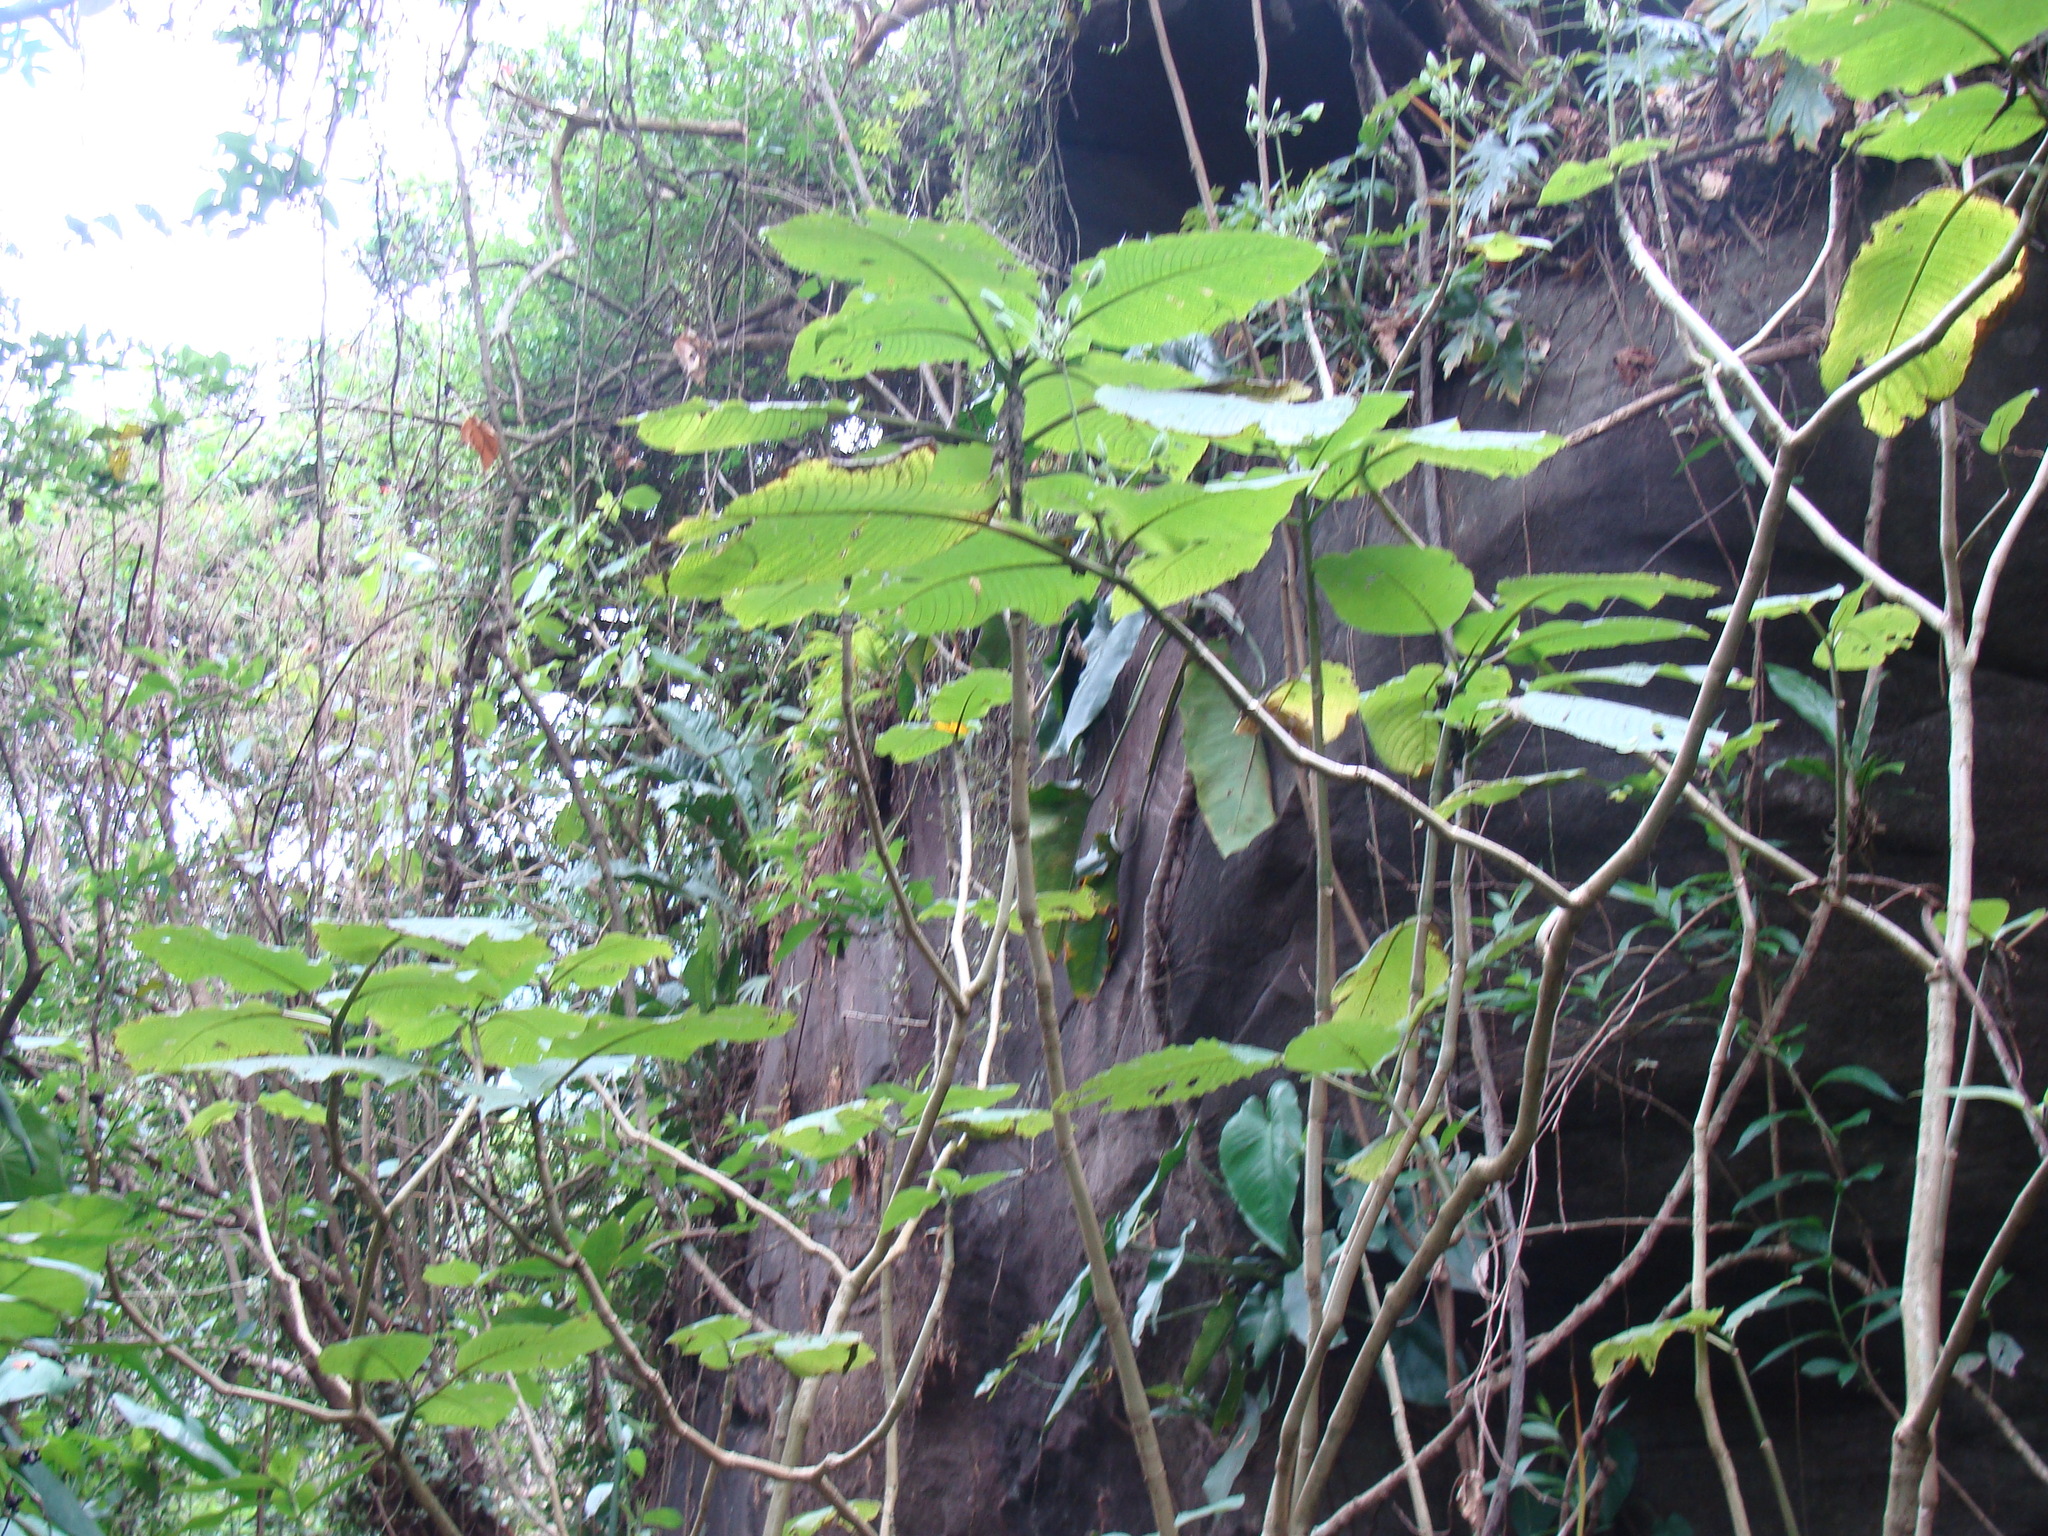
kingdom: Plantae
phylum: Tracheophyta
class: Magnoliopsida
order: Lamiales
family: Acanthaceae
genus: Louteridium
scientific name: Louteridium purpusii
